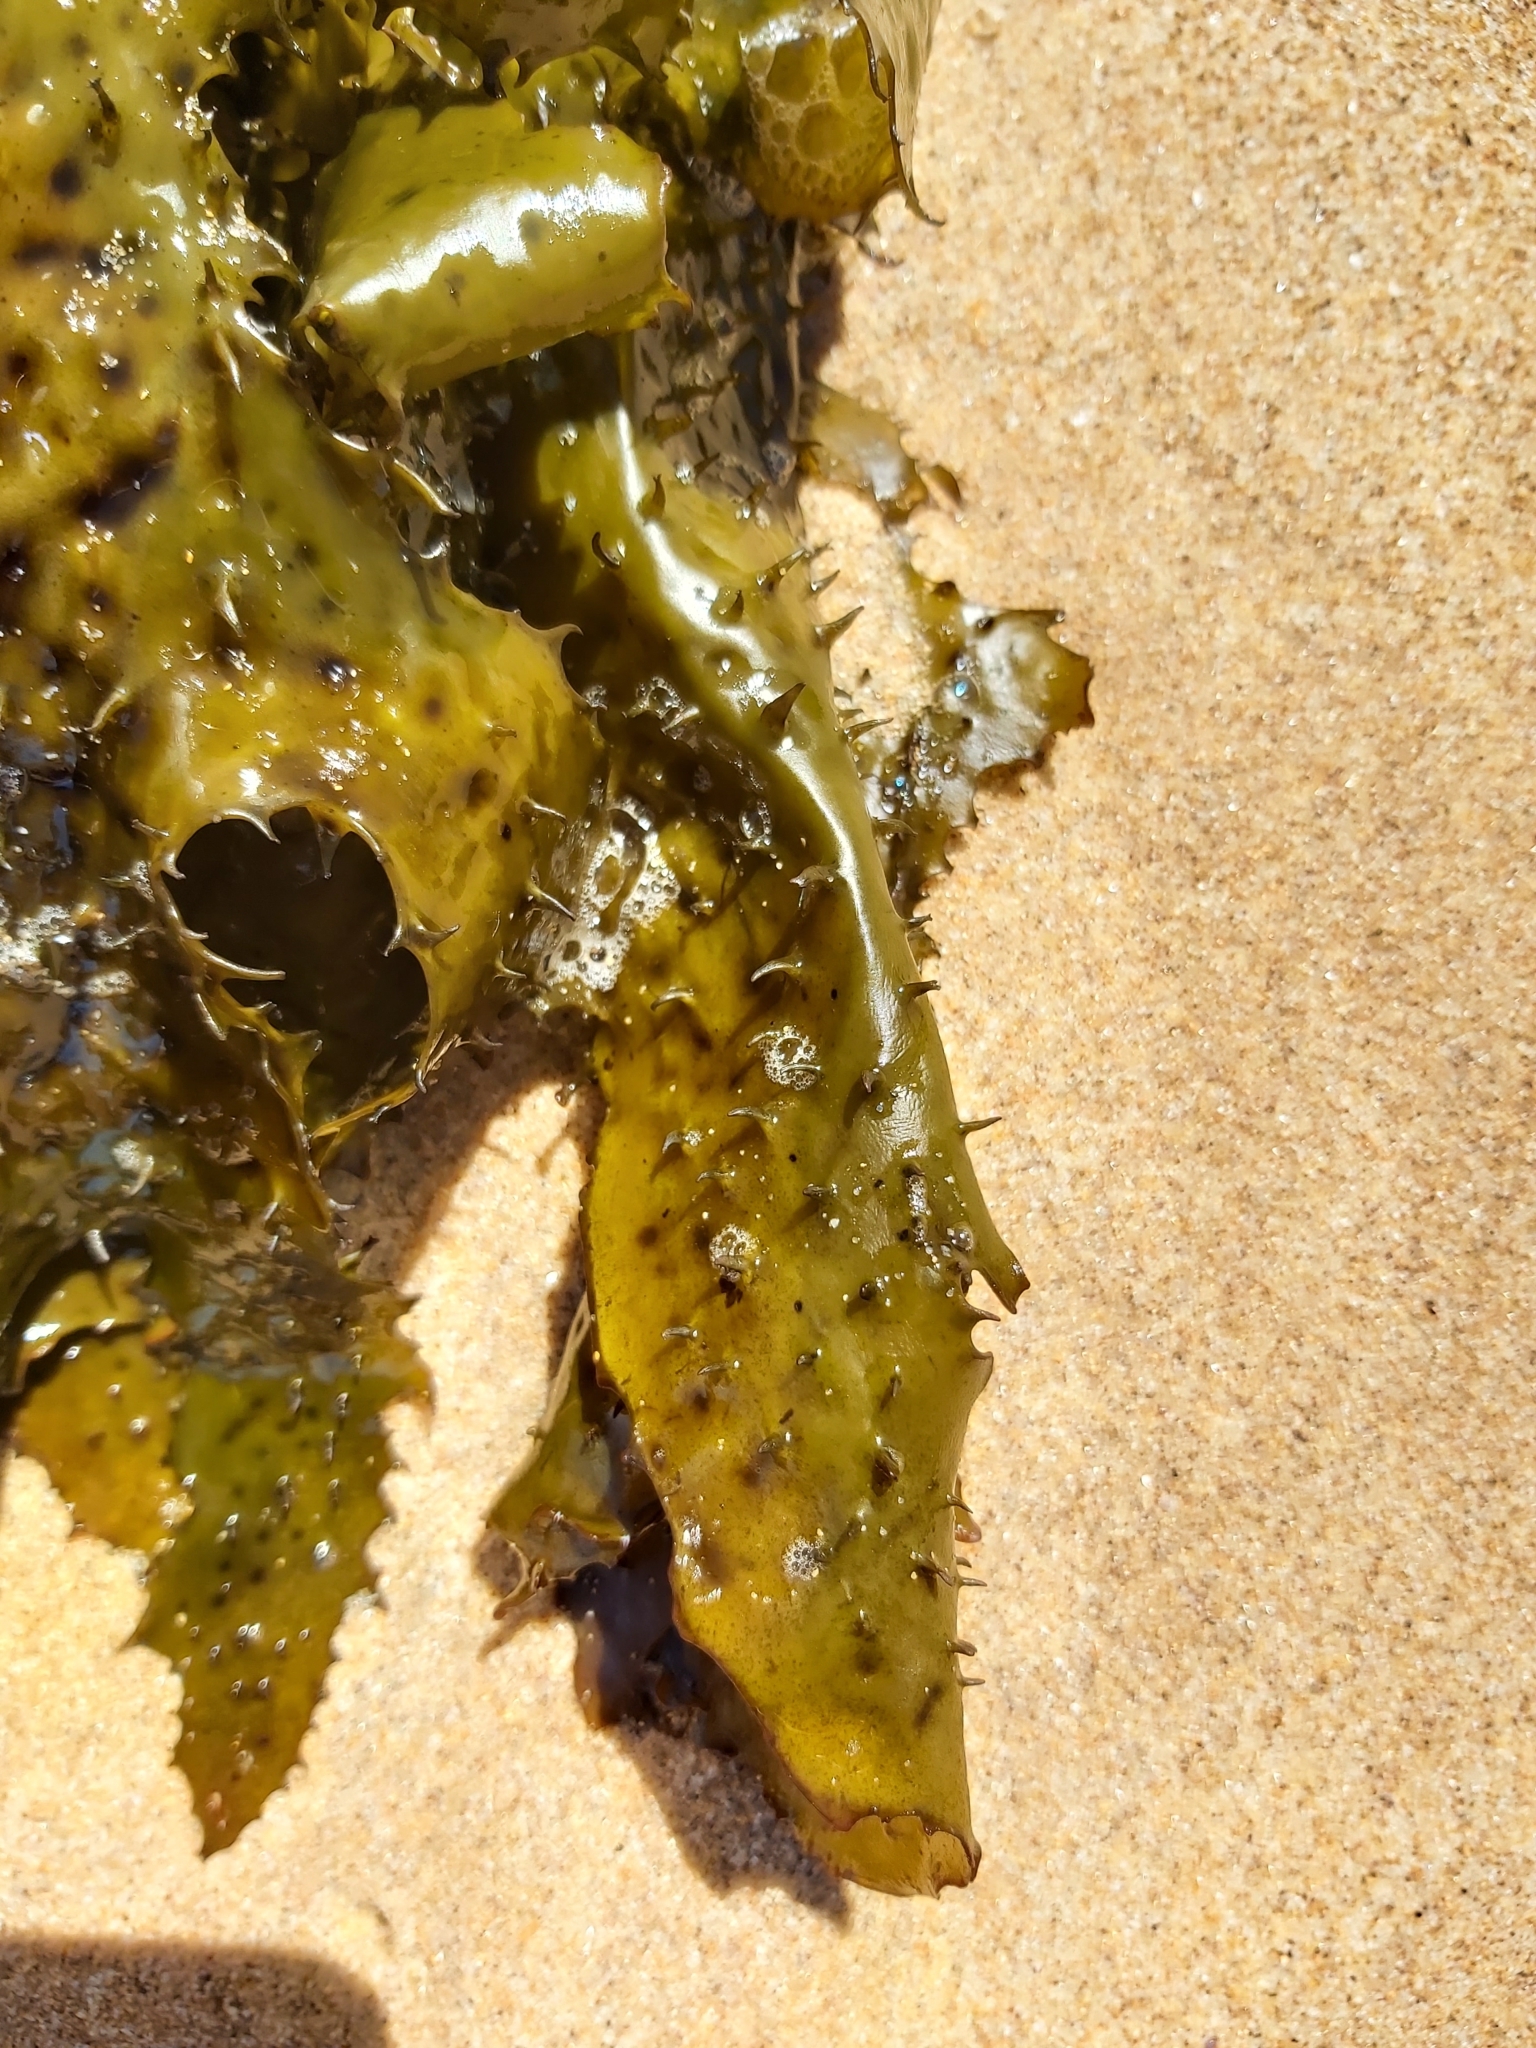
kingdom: Chromista
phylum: Ochrophyta
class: Phaeophyceae
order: Laminariales
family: Lessoniaceae
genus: Ecklonia
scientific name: Ecklonia radiata
